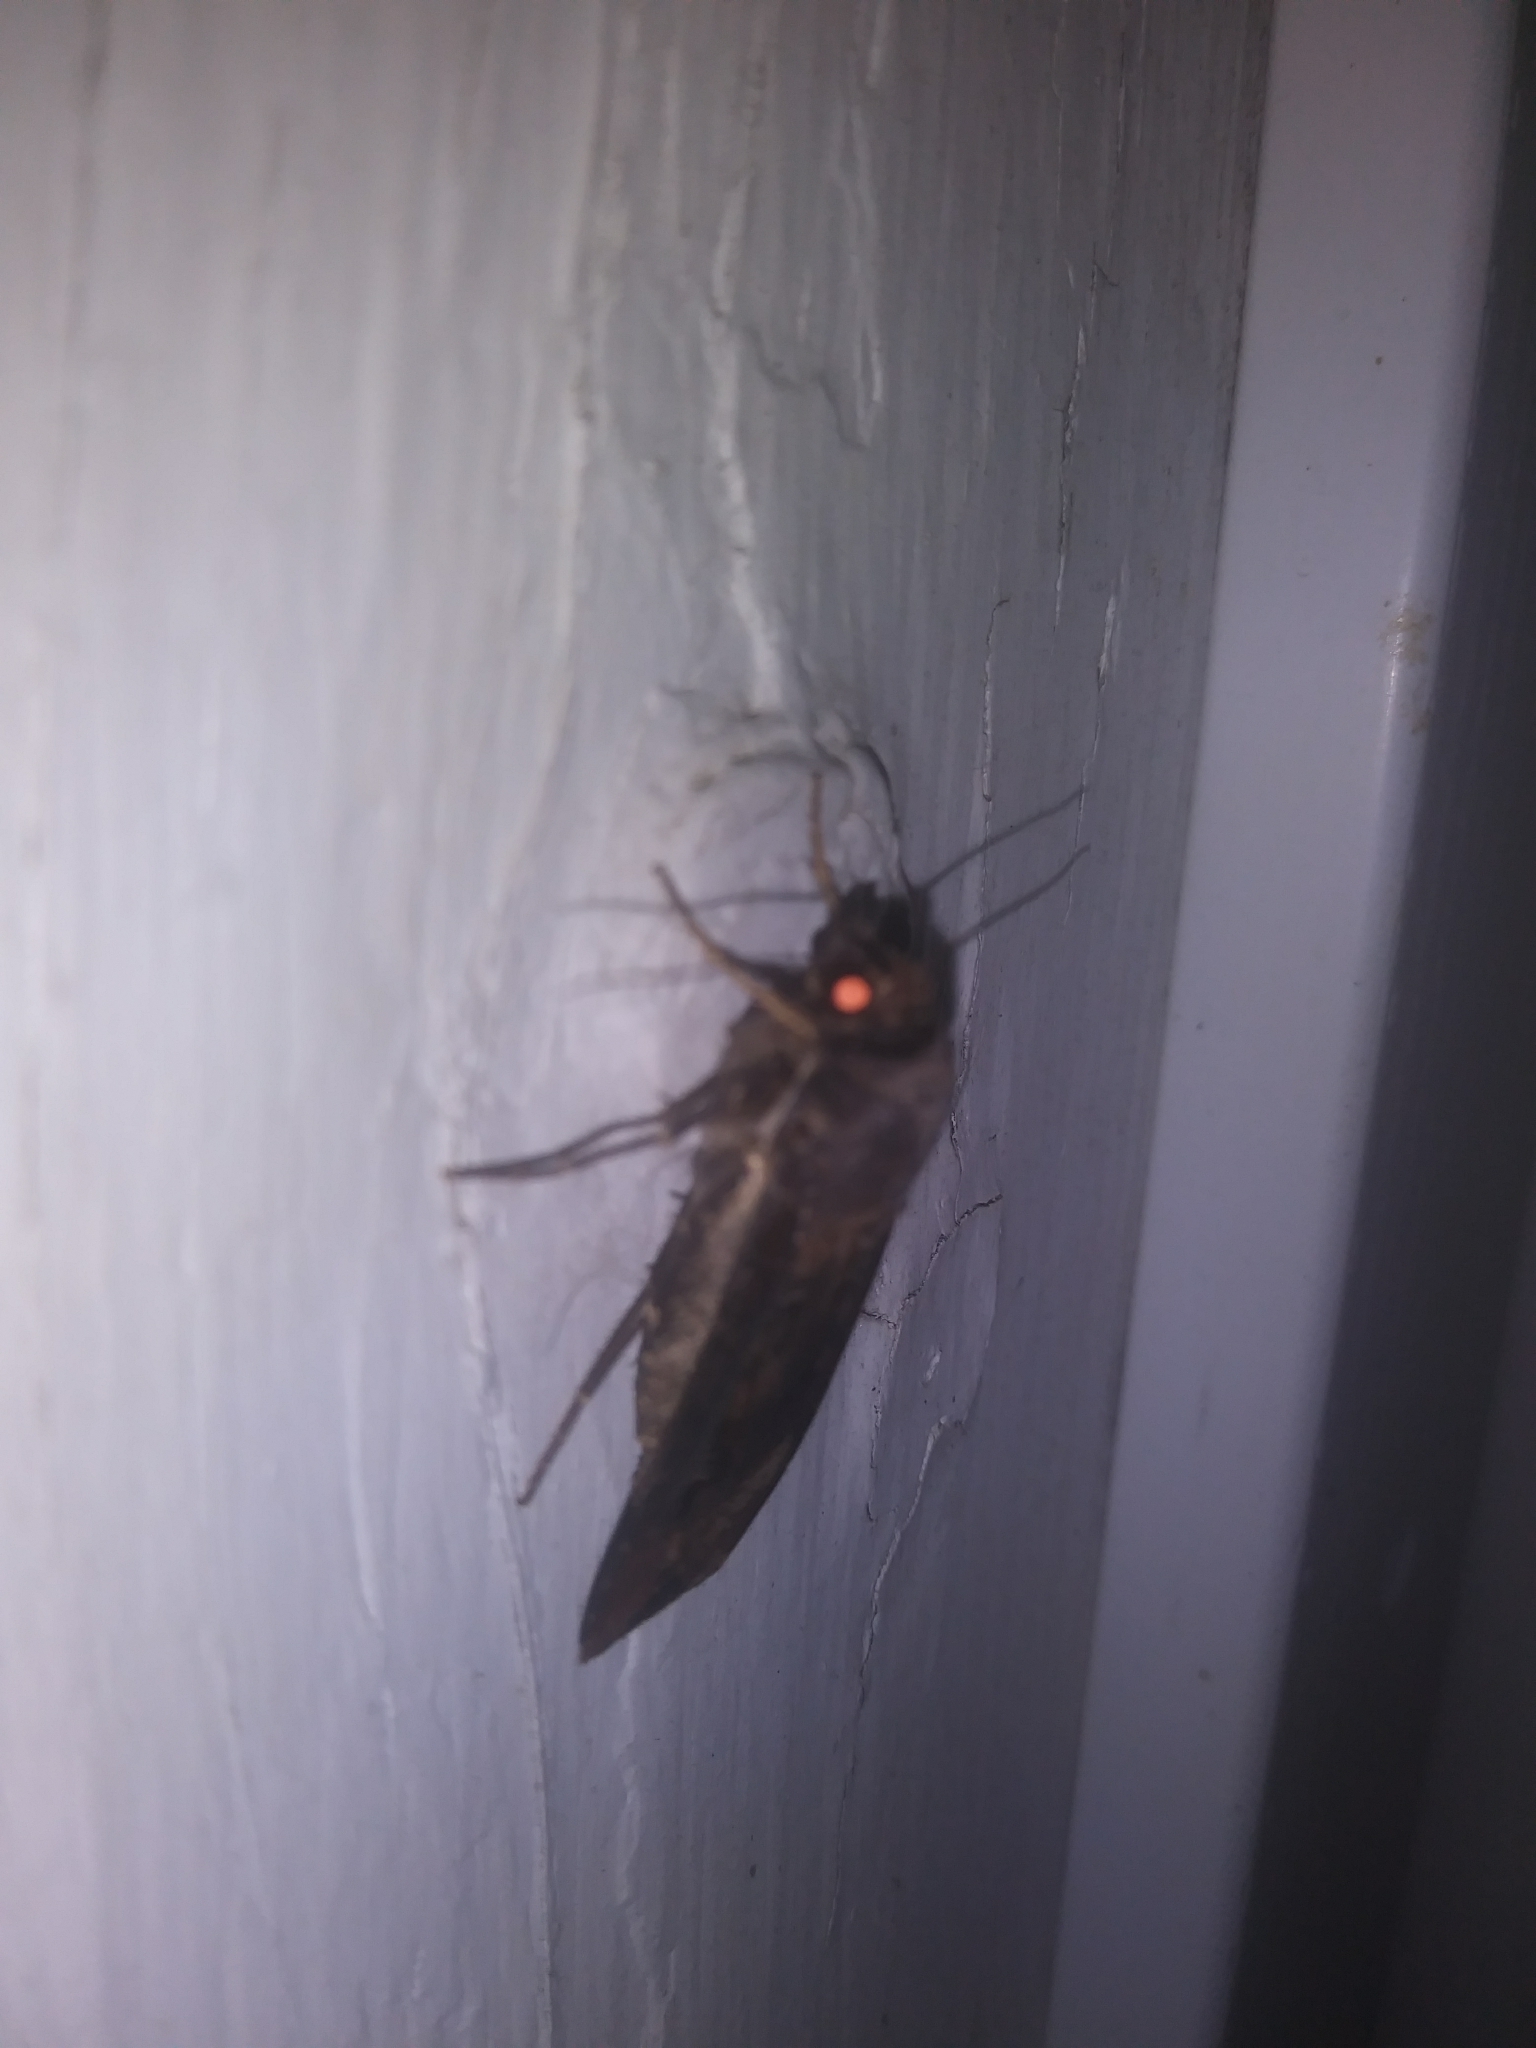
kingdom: Animalia
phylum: Arthropoda
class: Insecta
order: Lepidoptera
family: Noctuidae
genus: Agrotis
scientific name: Agrotis ipsilon
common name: Dark sword-grass
